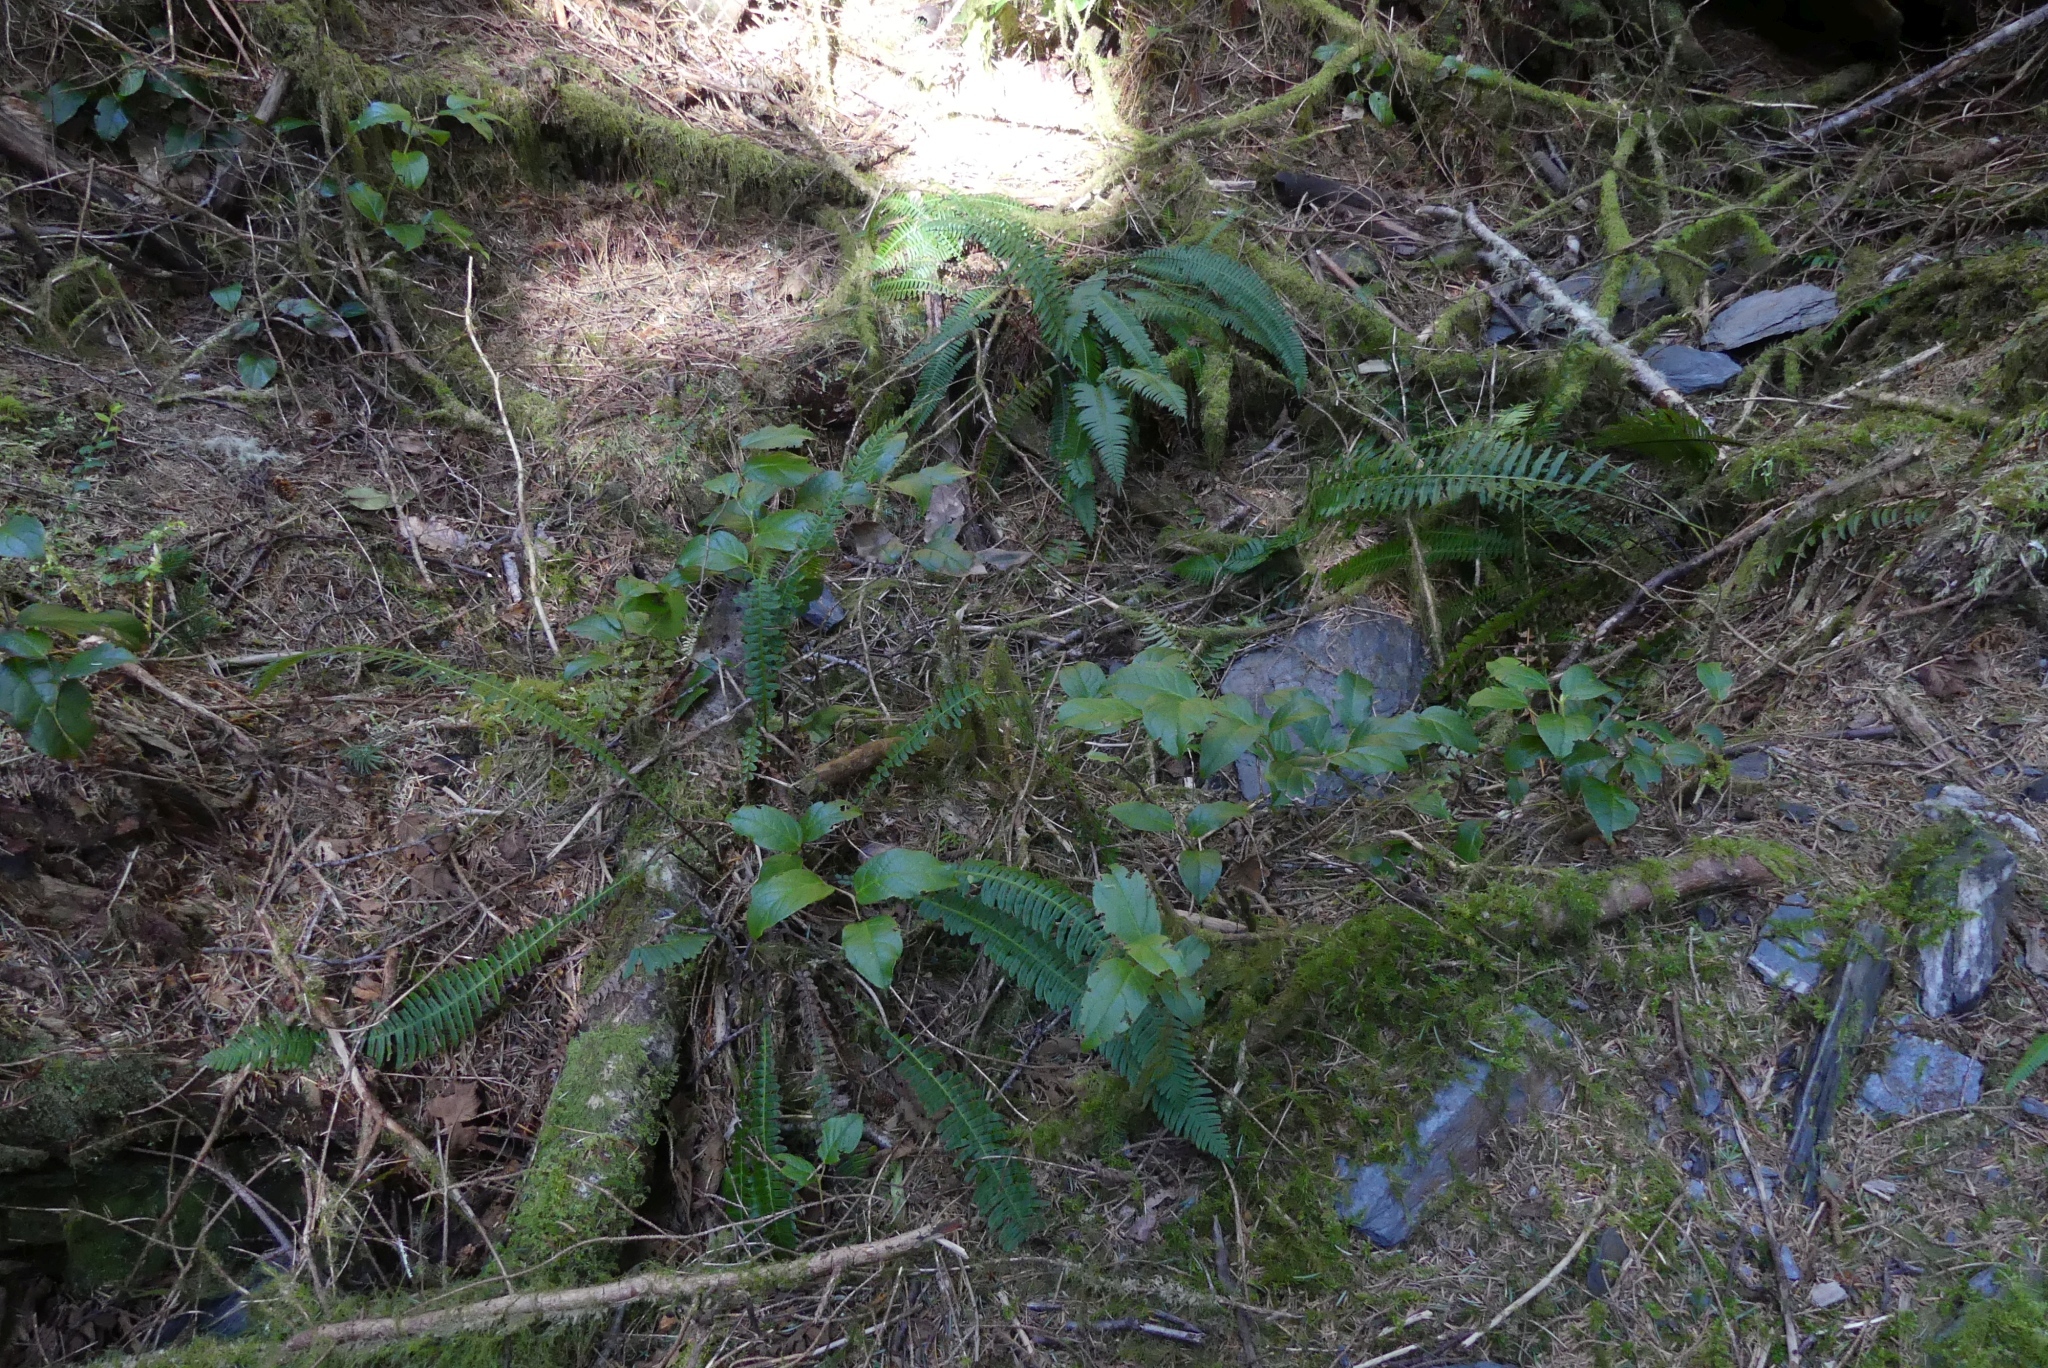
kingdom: Plantae
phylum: Tracheophyta
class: Magnoliopsida
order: Ericales
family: Ericaceae
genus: Gaultheria
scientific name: Gaultheria shallon
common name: Shallon
